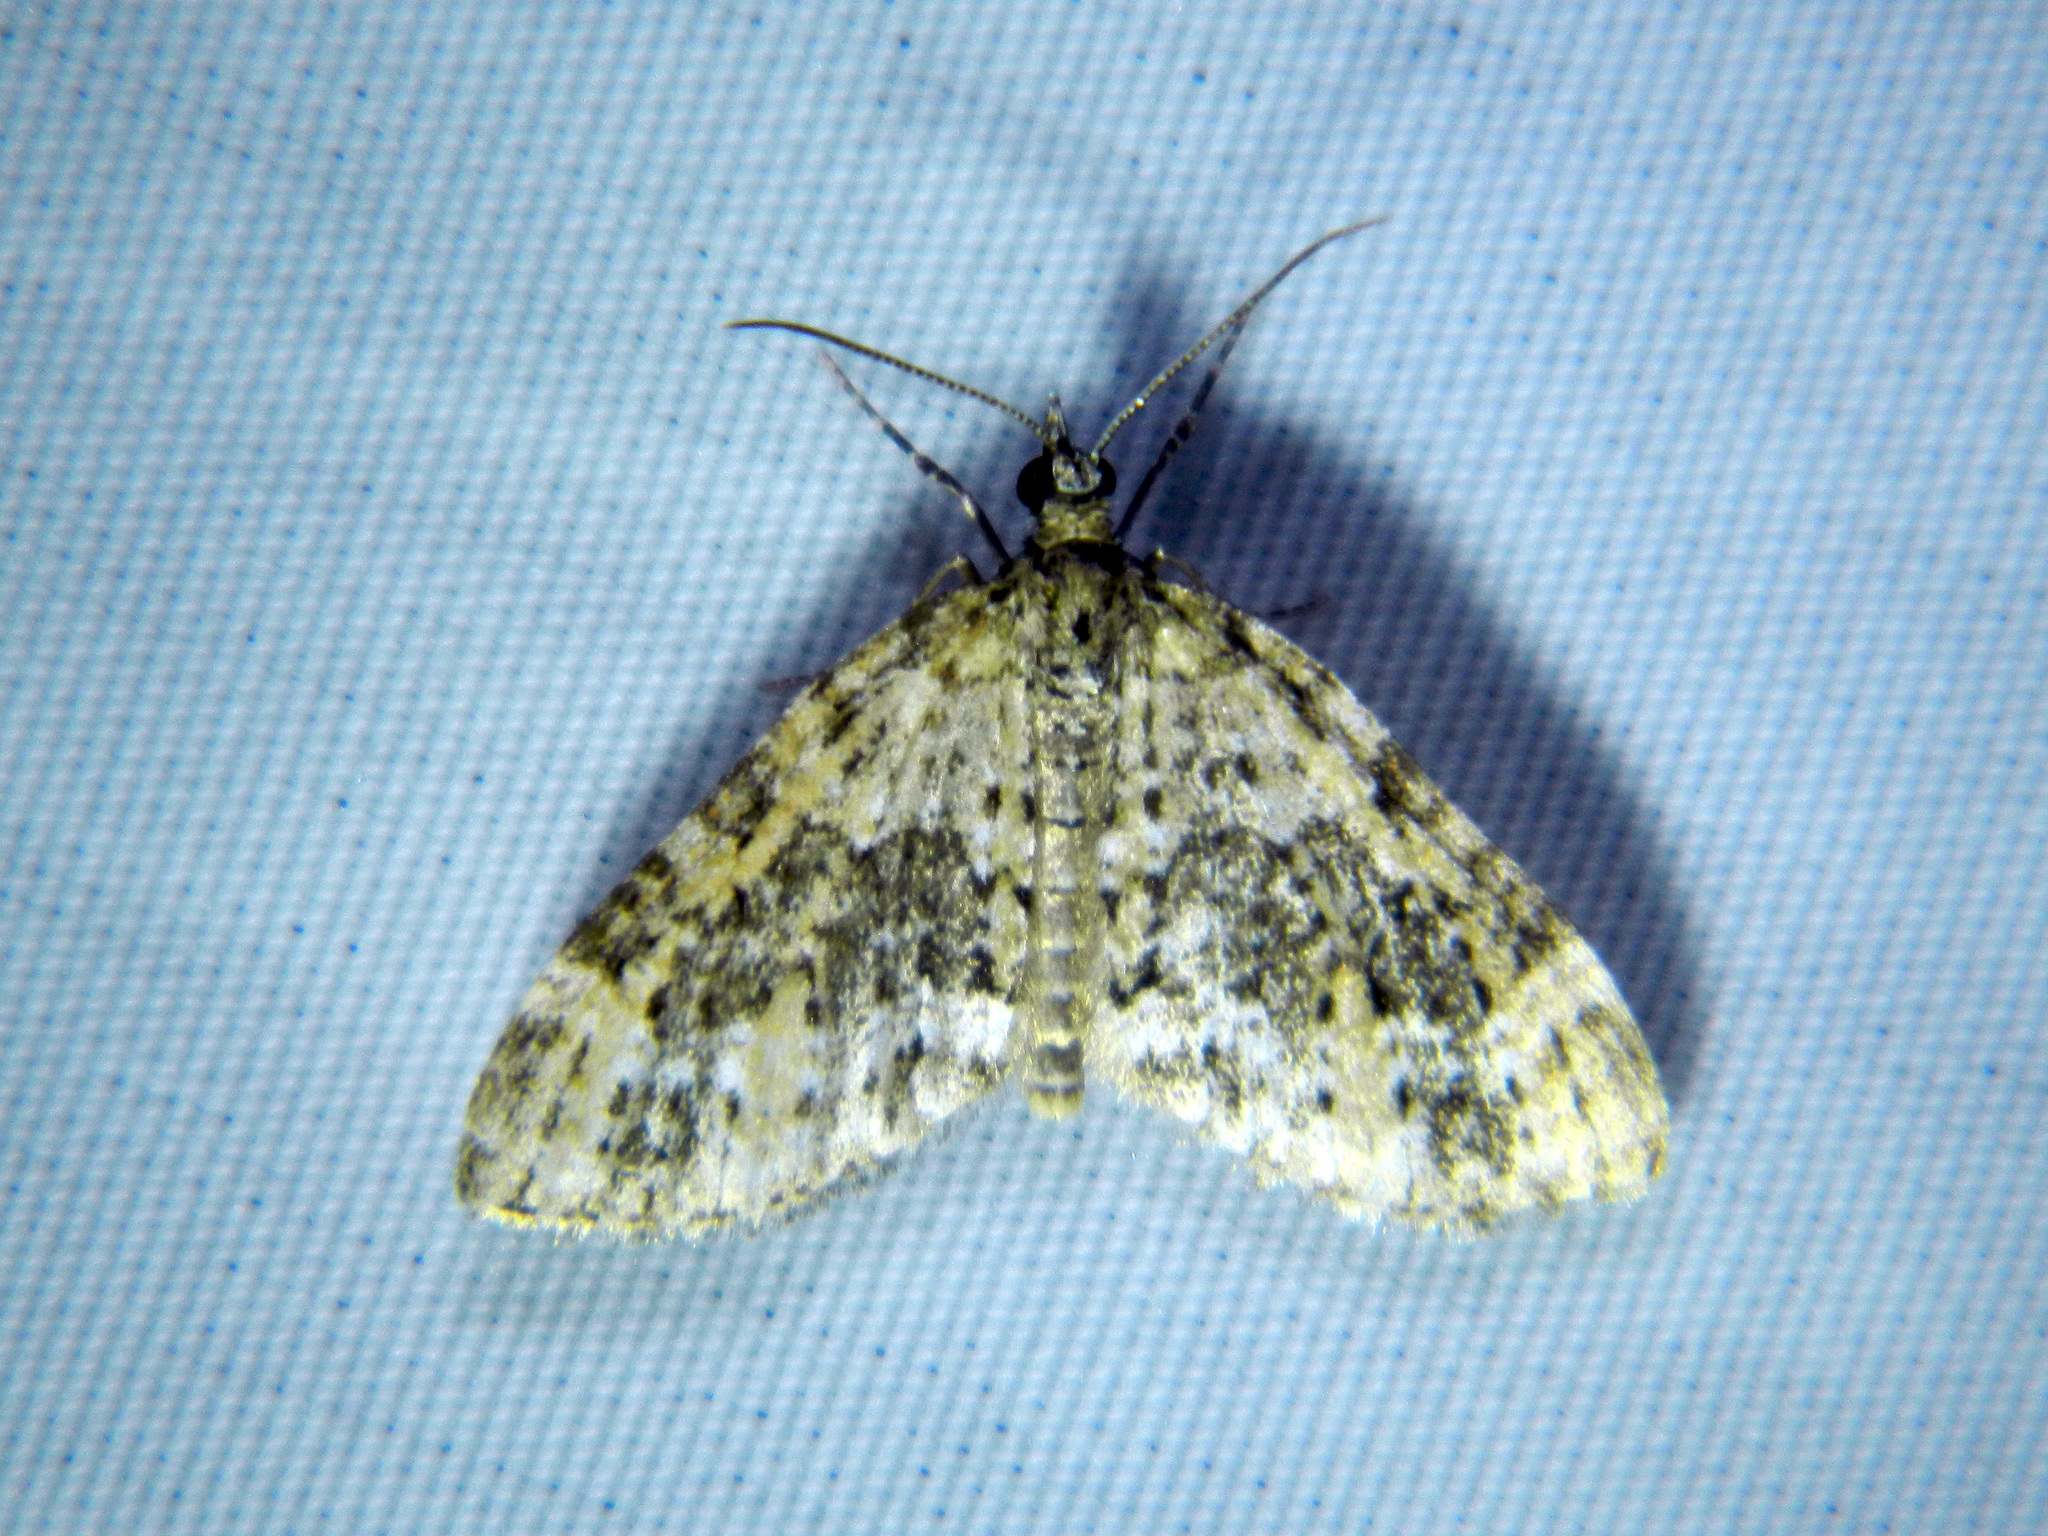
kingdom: Animalia
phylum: Arthropoda
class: Insecta
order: Lepidoptera
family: Geometridae
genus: Acasis
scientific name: Acasis viridata
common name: Olive-and-black carpet moth
